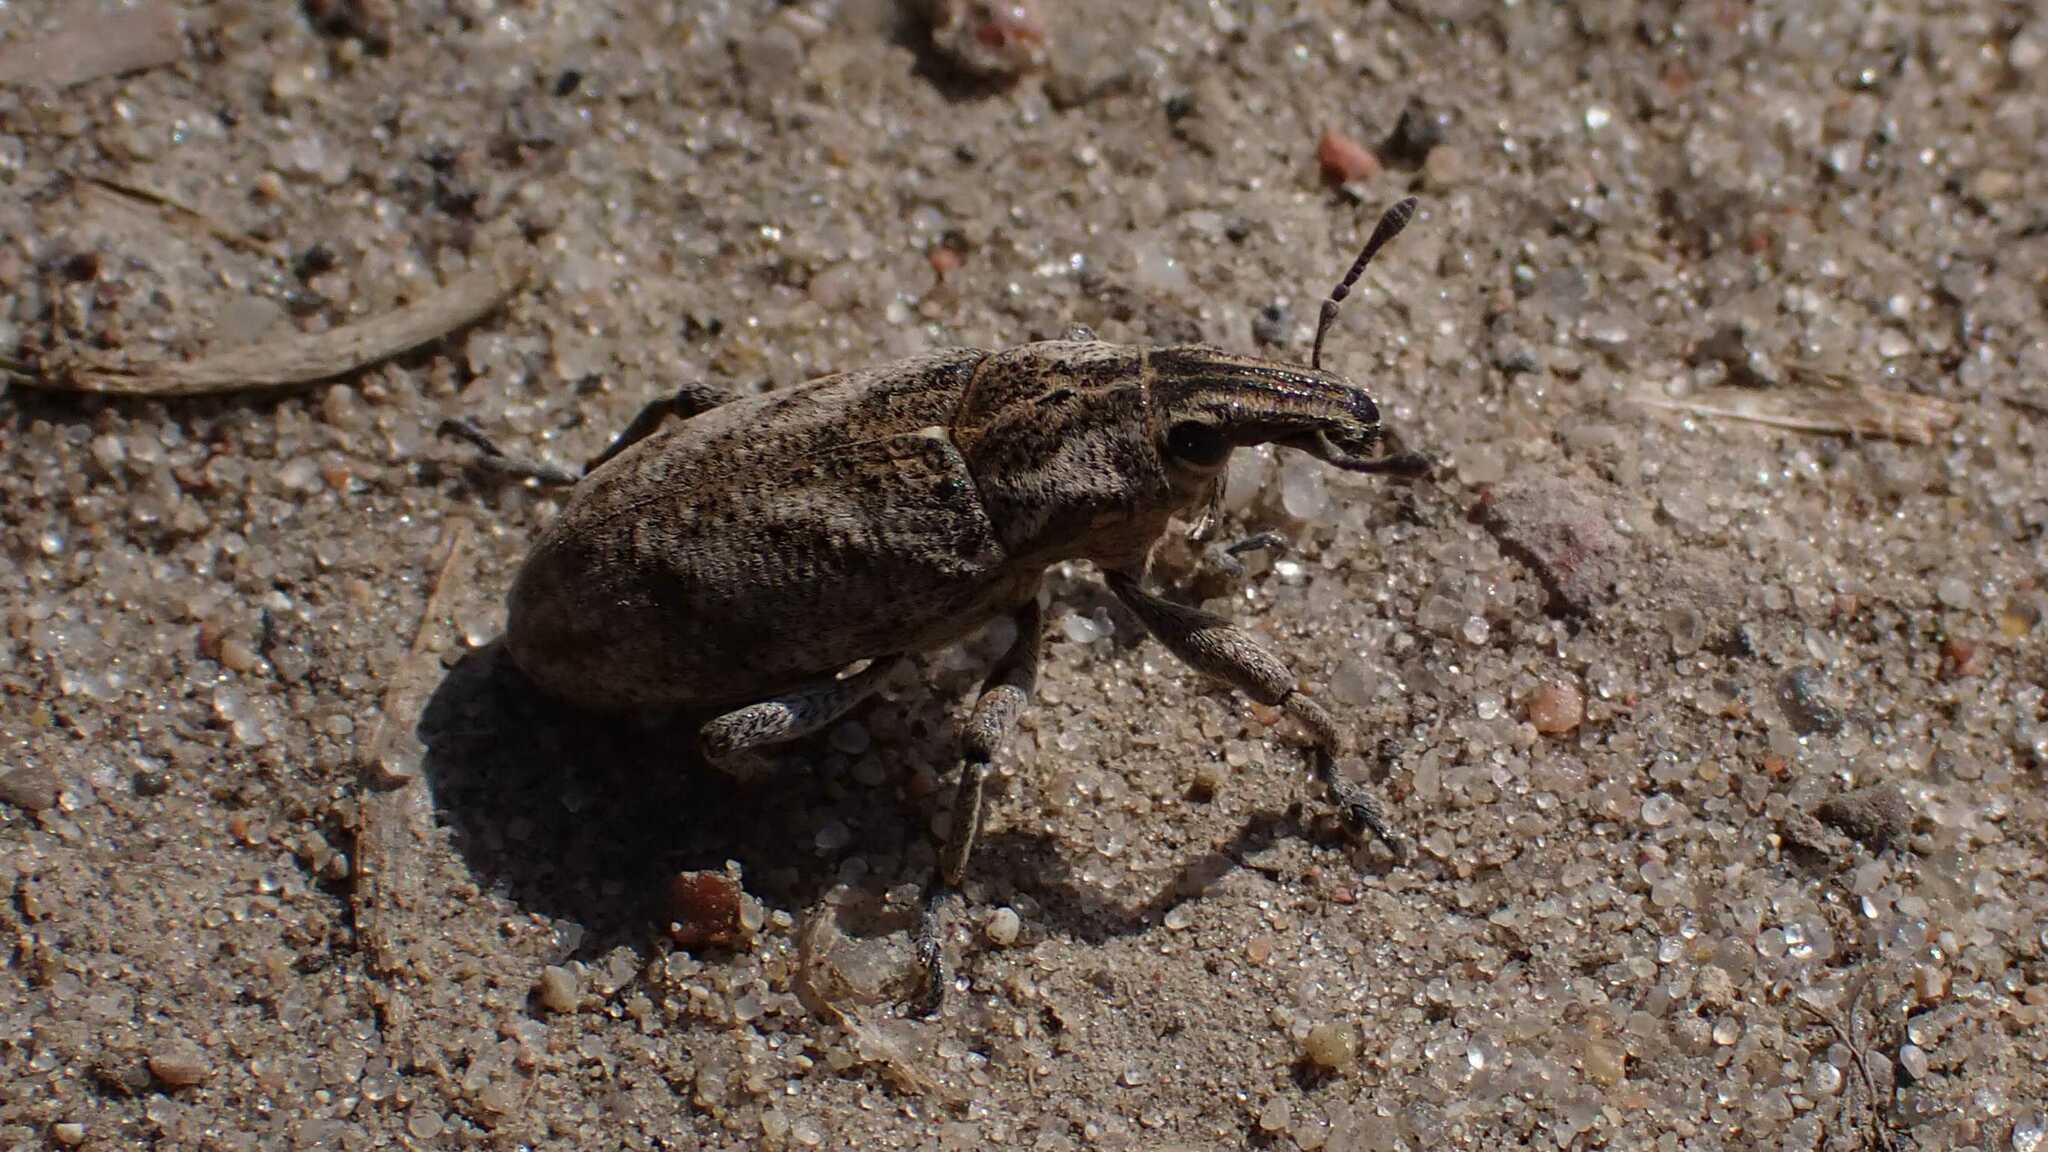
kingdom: Animalia
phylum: Arthropoda
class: Insecta
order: Coleoptera
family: Curculionidae
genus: Cleonis
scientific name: Cleonis pigra
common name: Large thistle weevil
